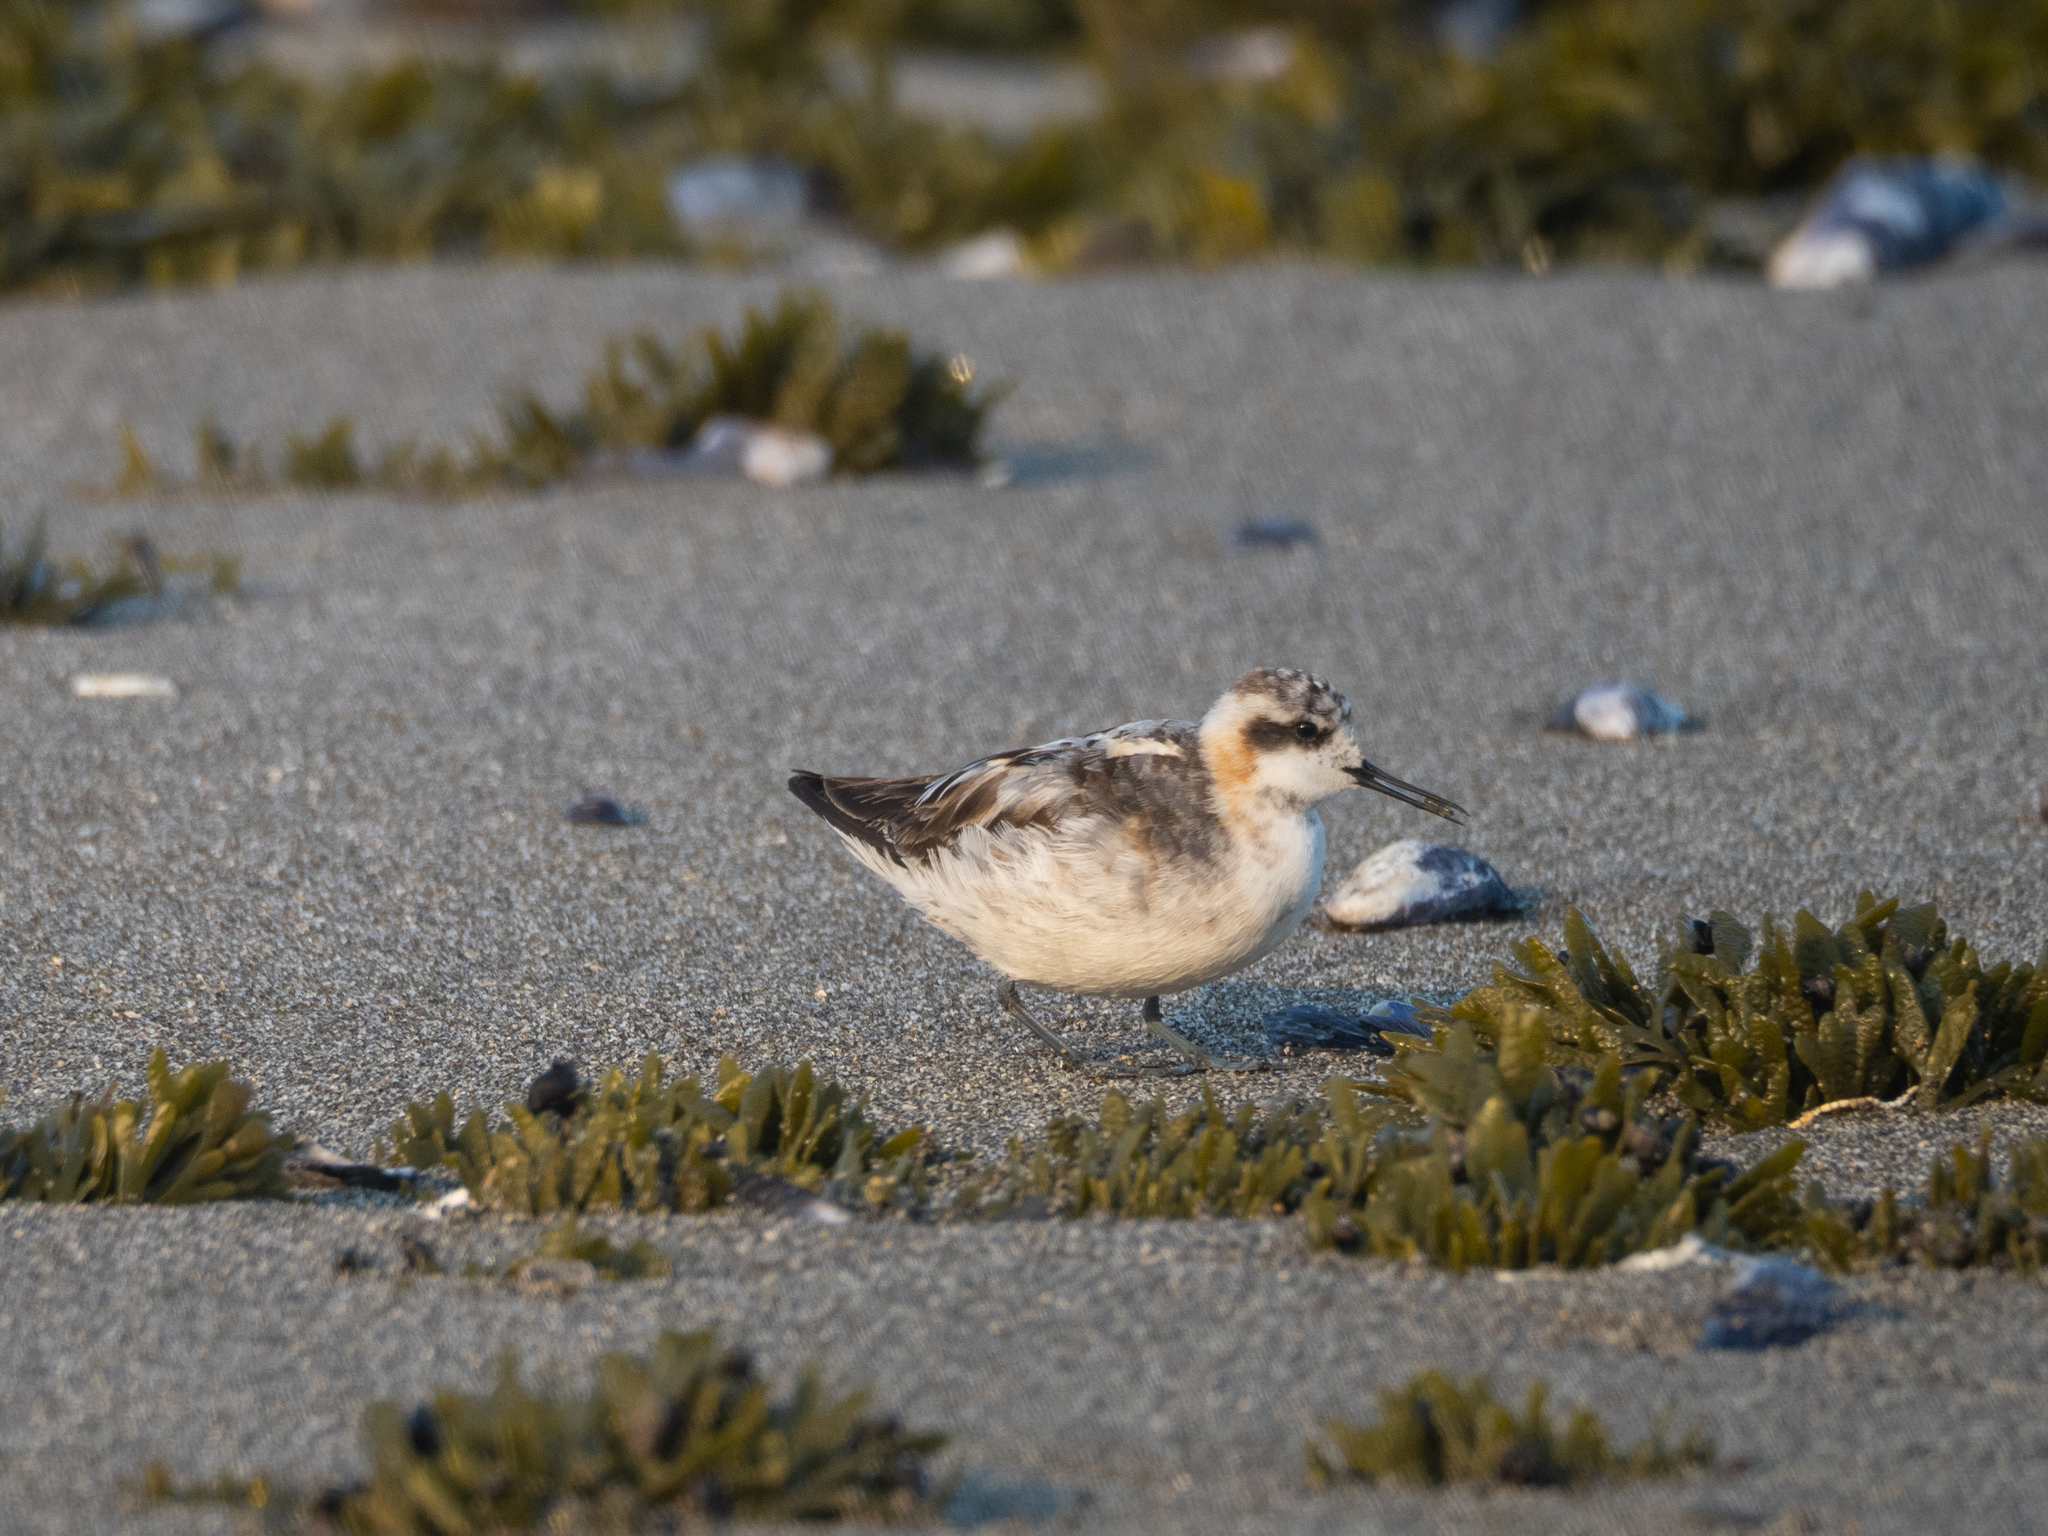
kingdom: Animalia
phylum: Chordata
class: Aves
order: Charadriiformes
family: Scolopacidae
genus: Phalaropus
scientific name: Phalaropus lobatus
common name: Red-necked phalarope
